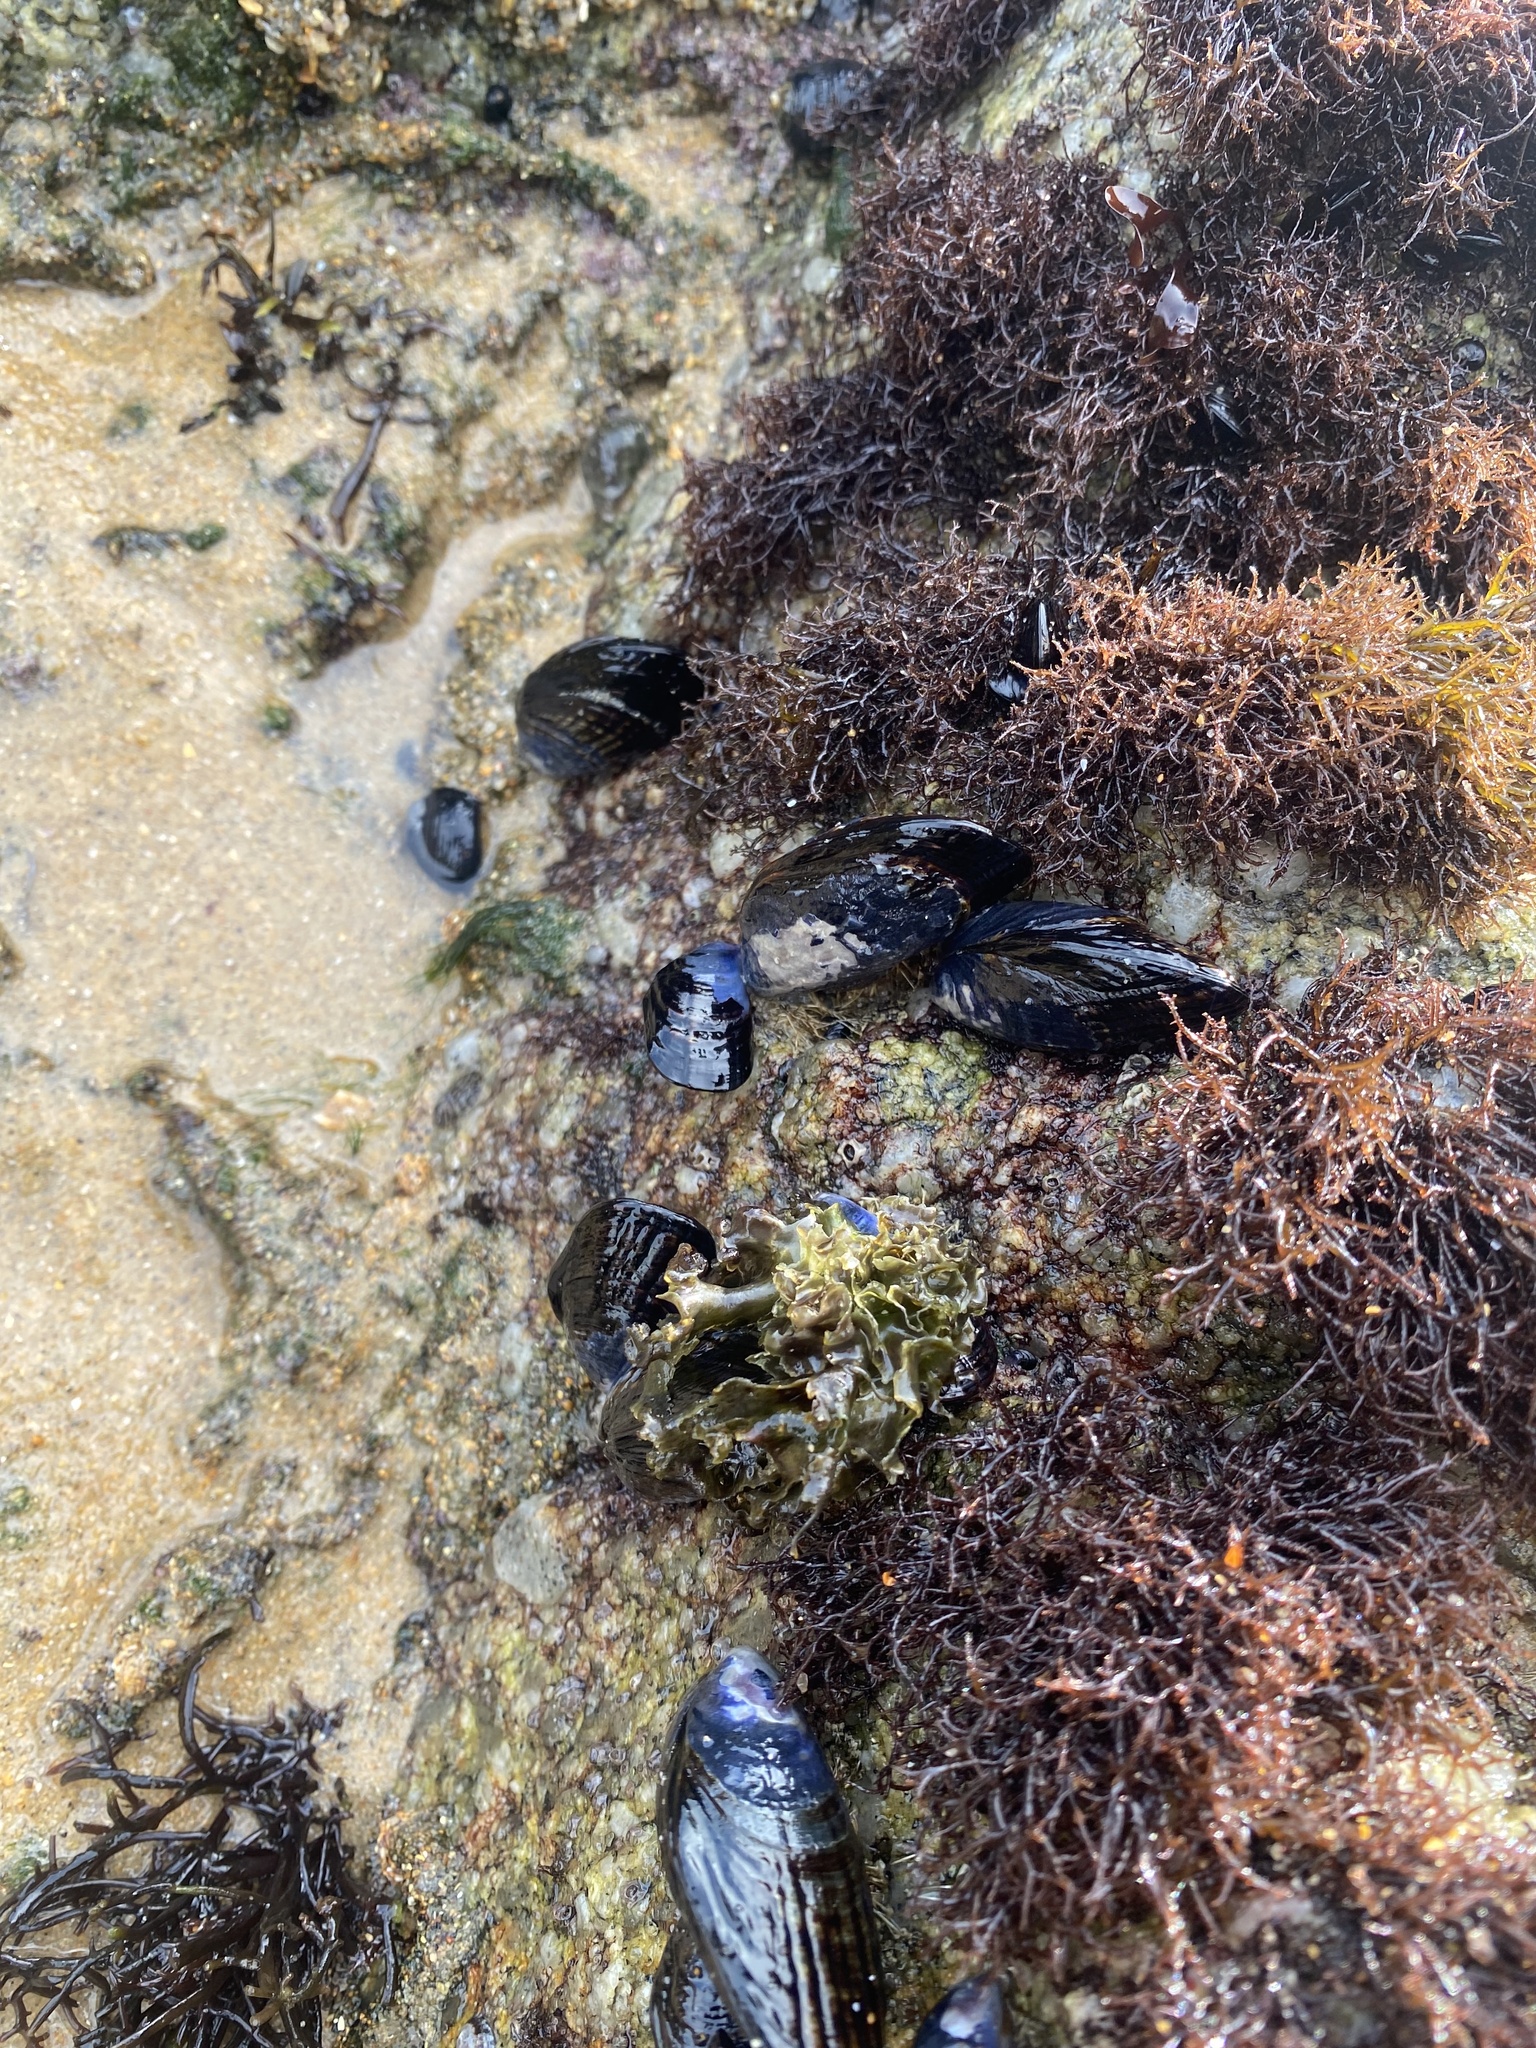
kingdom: Animalia
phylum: Mollusca
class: Bivalvia
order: Mytilida
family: Mytilidae
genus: Mytilus
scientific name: Mytilus californianus
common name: California mussel
